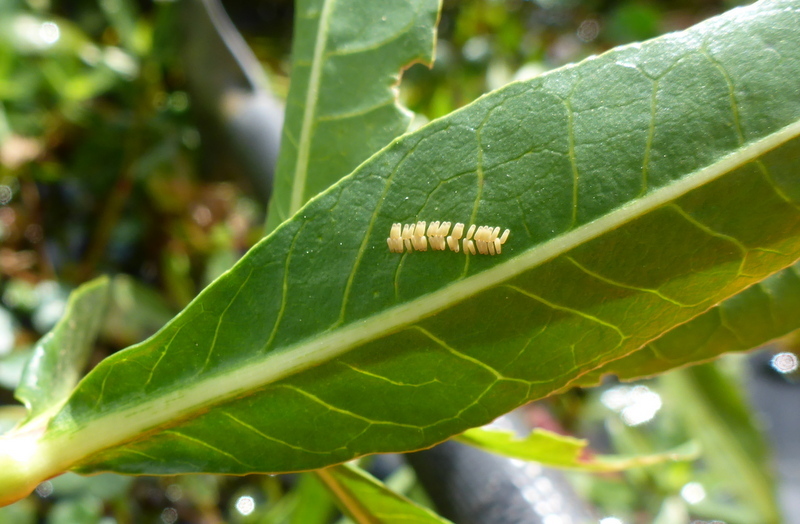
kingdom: Animalia
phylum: Arthropoda
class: Insecta
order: Coleoptera
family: Chrysomelidae
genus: Agasicles
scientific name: Agasicles hygrophila
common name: Alligatorweed flea beetle
